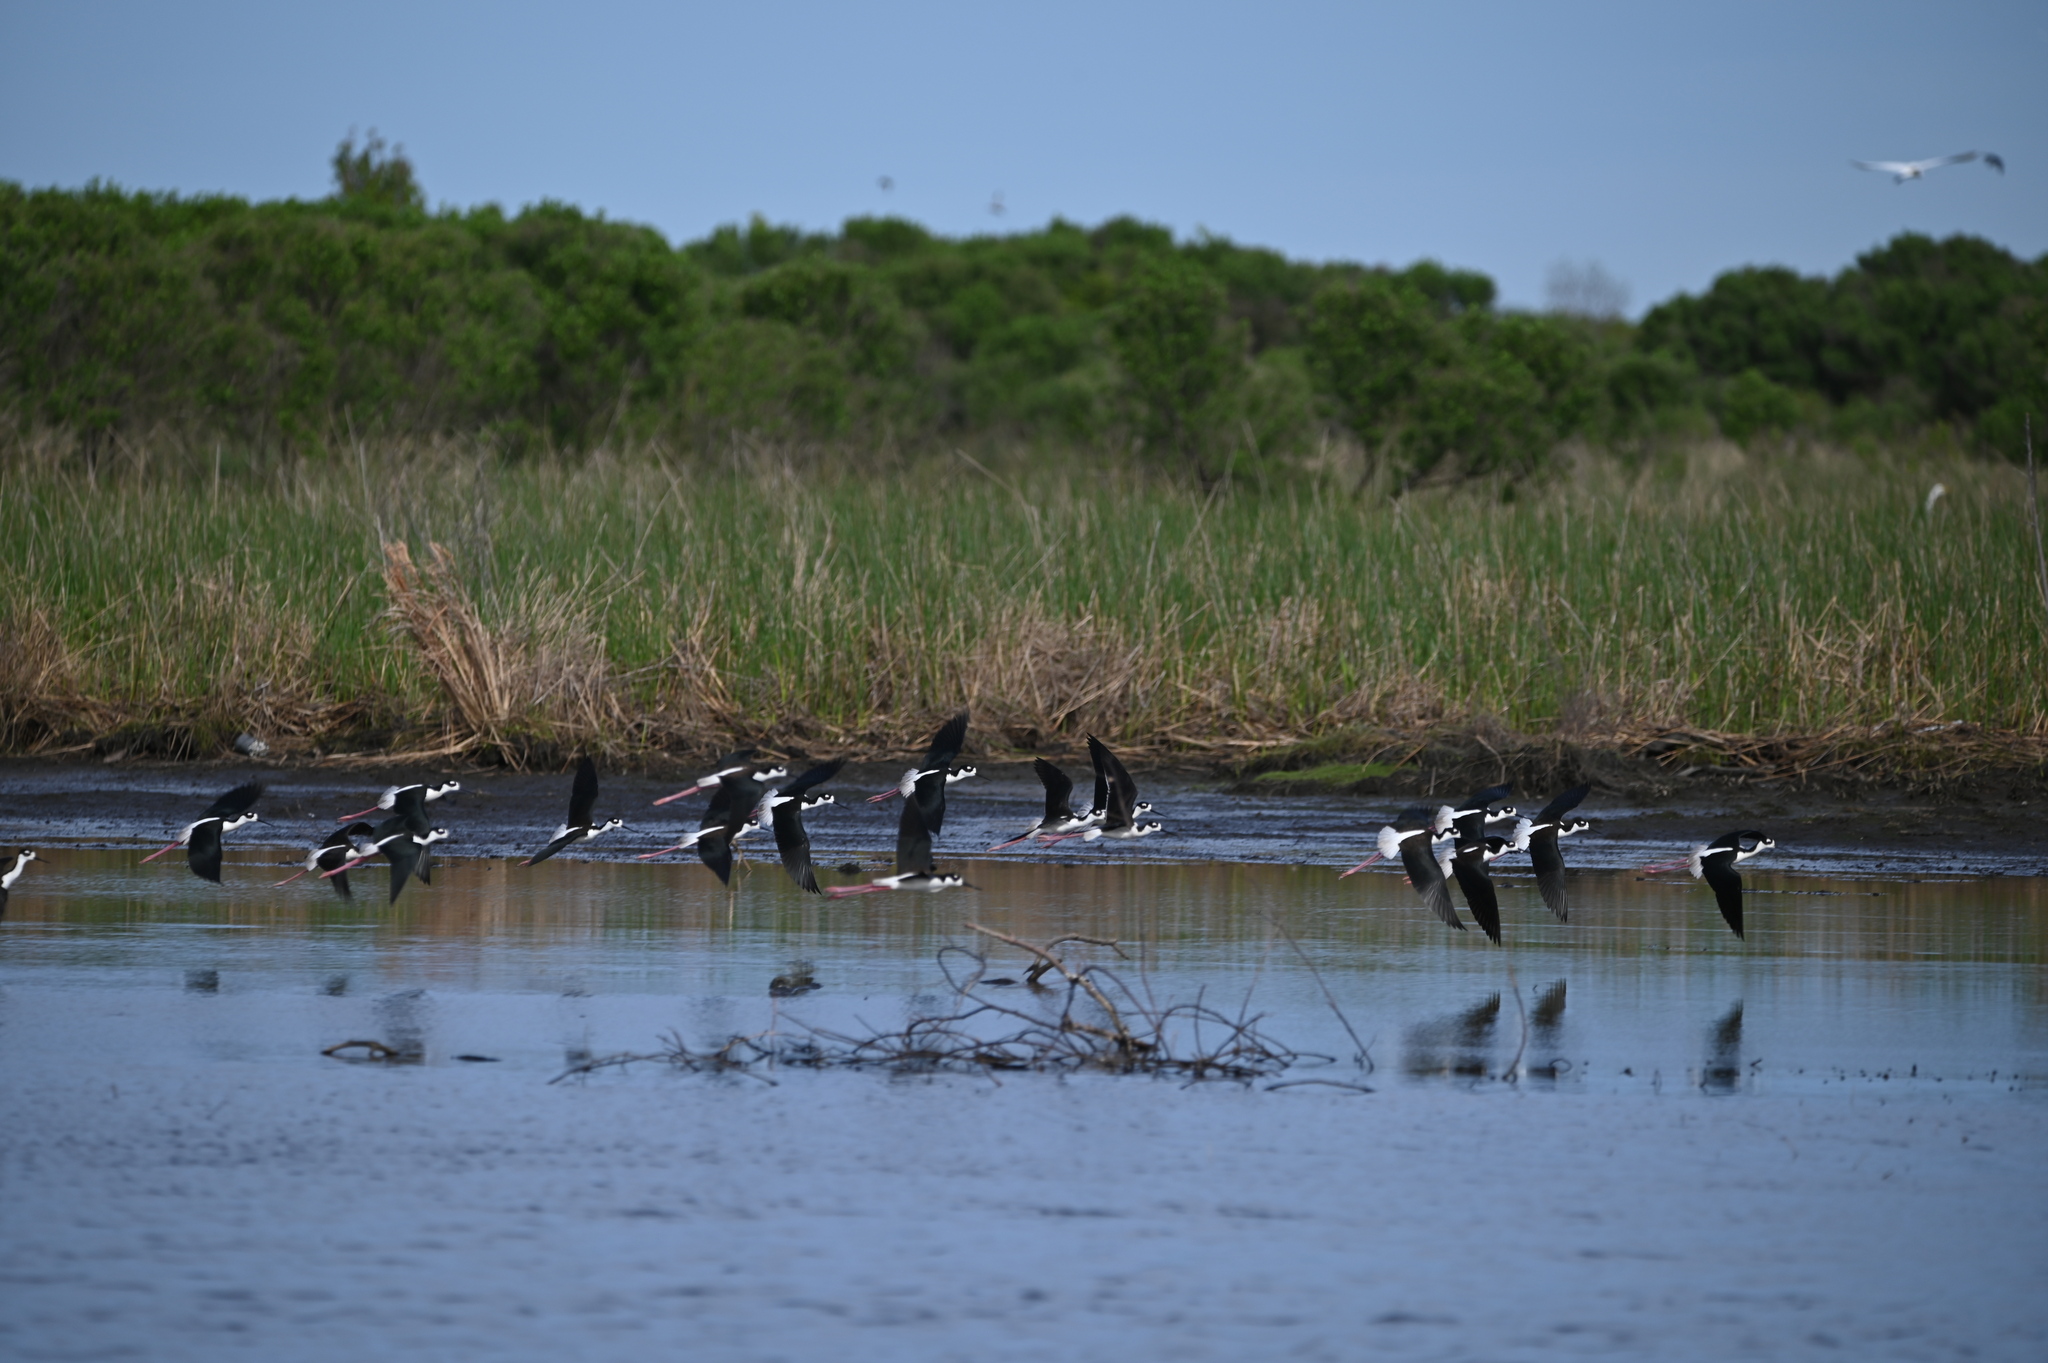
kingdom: Animalia
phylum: Chordata
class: Aves
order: Charadriiformes
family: Recurvirostridae
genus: Himantopus
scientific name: Himantopus mexicanus
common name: Black-necked stilt
